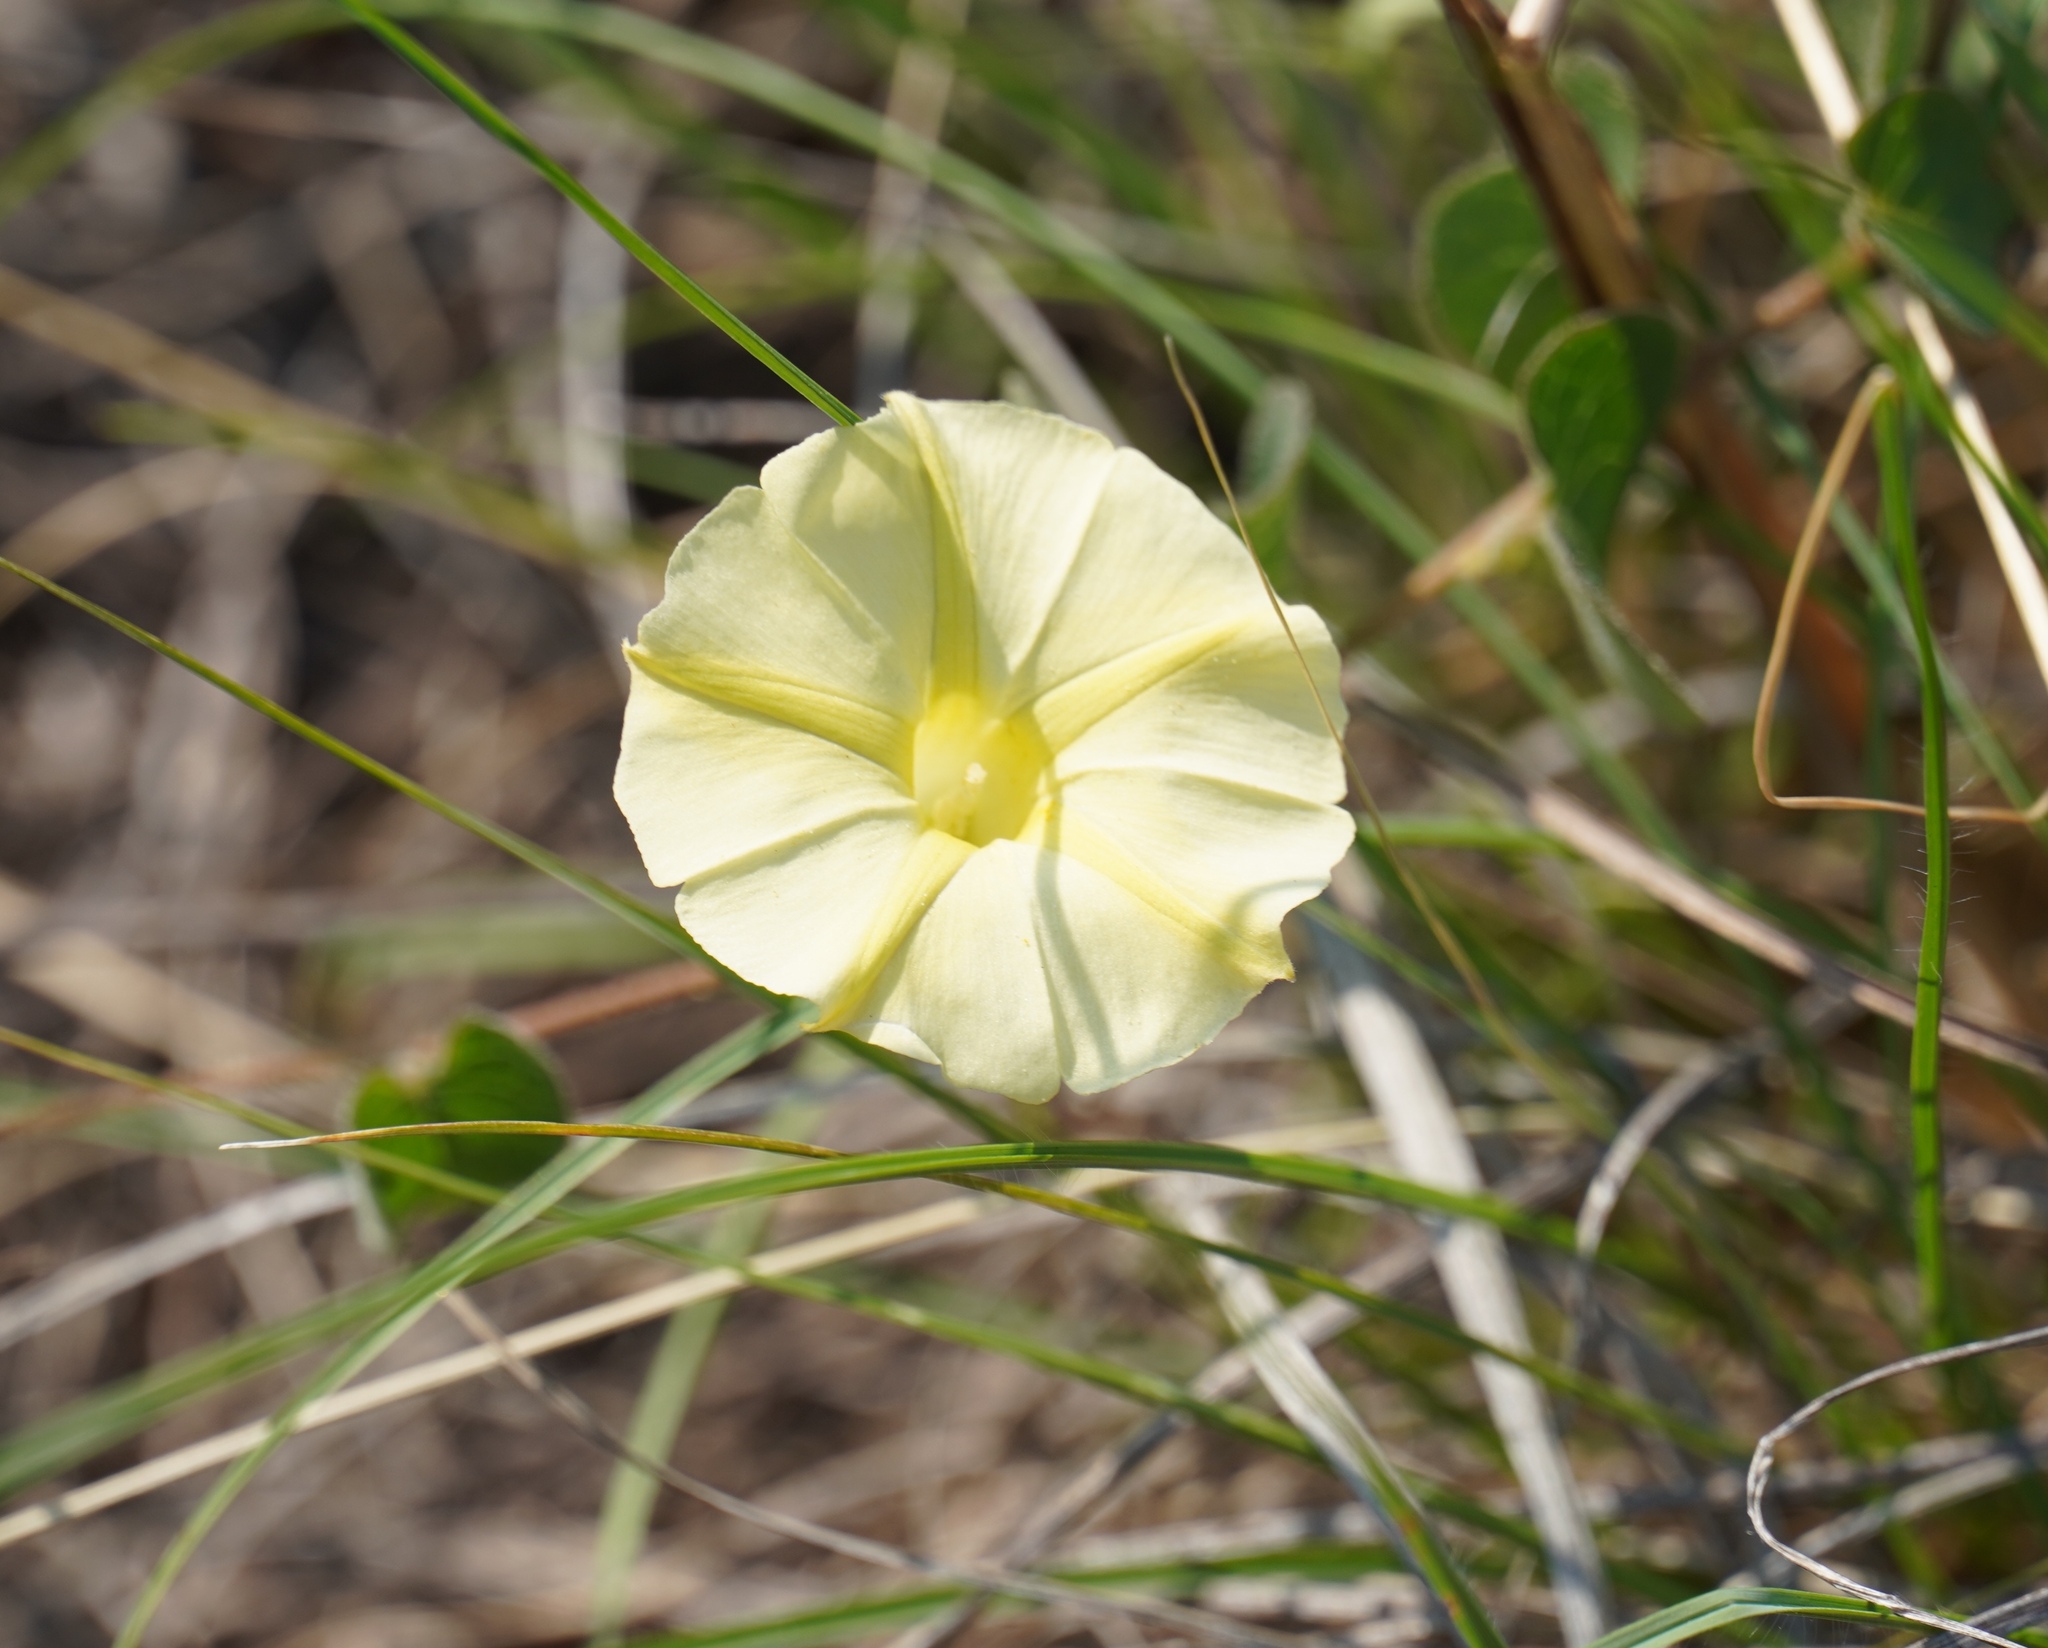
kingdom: Plantae
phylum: Tracheophyta
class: Magnoliopsida
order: Solanales
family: Convolvulaceae
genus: Ipomoea
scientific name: Ipomoea obscura
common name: Obscure morning-glory
